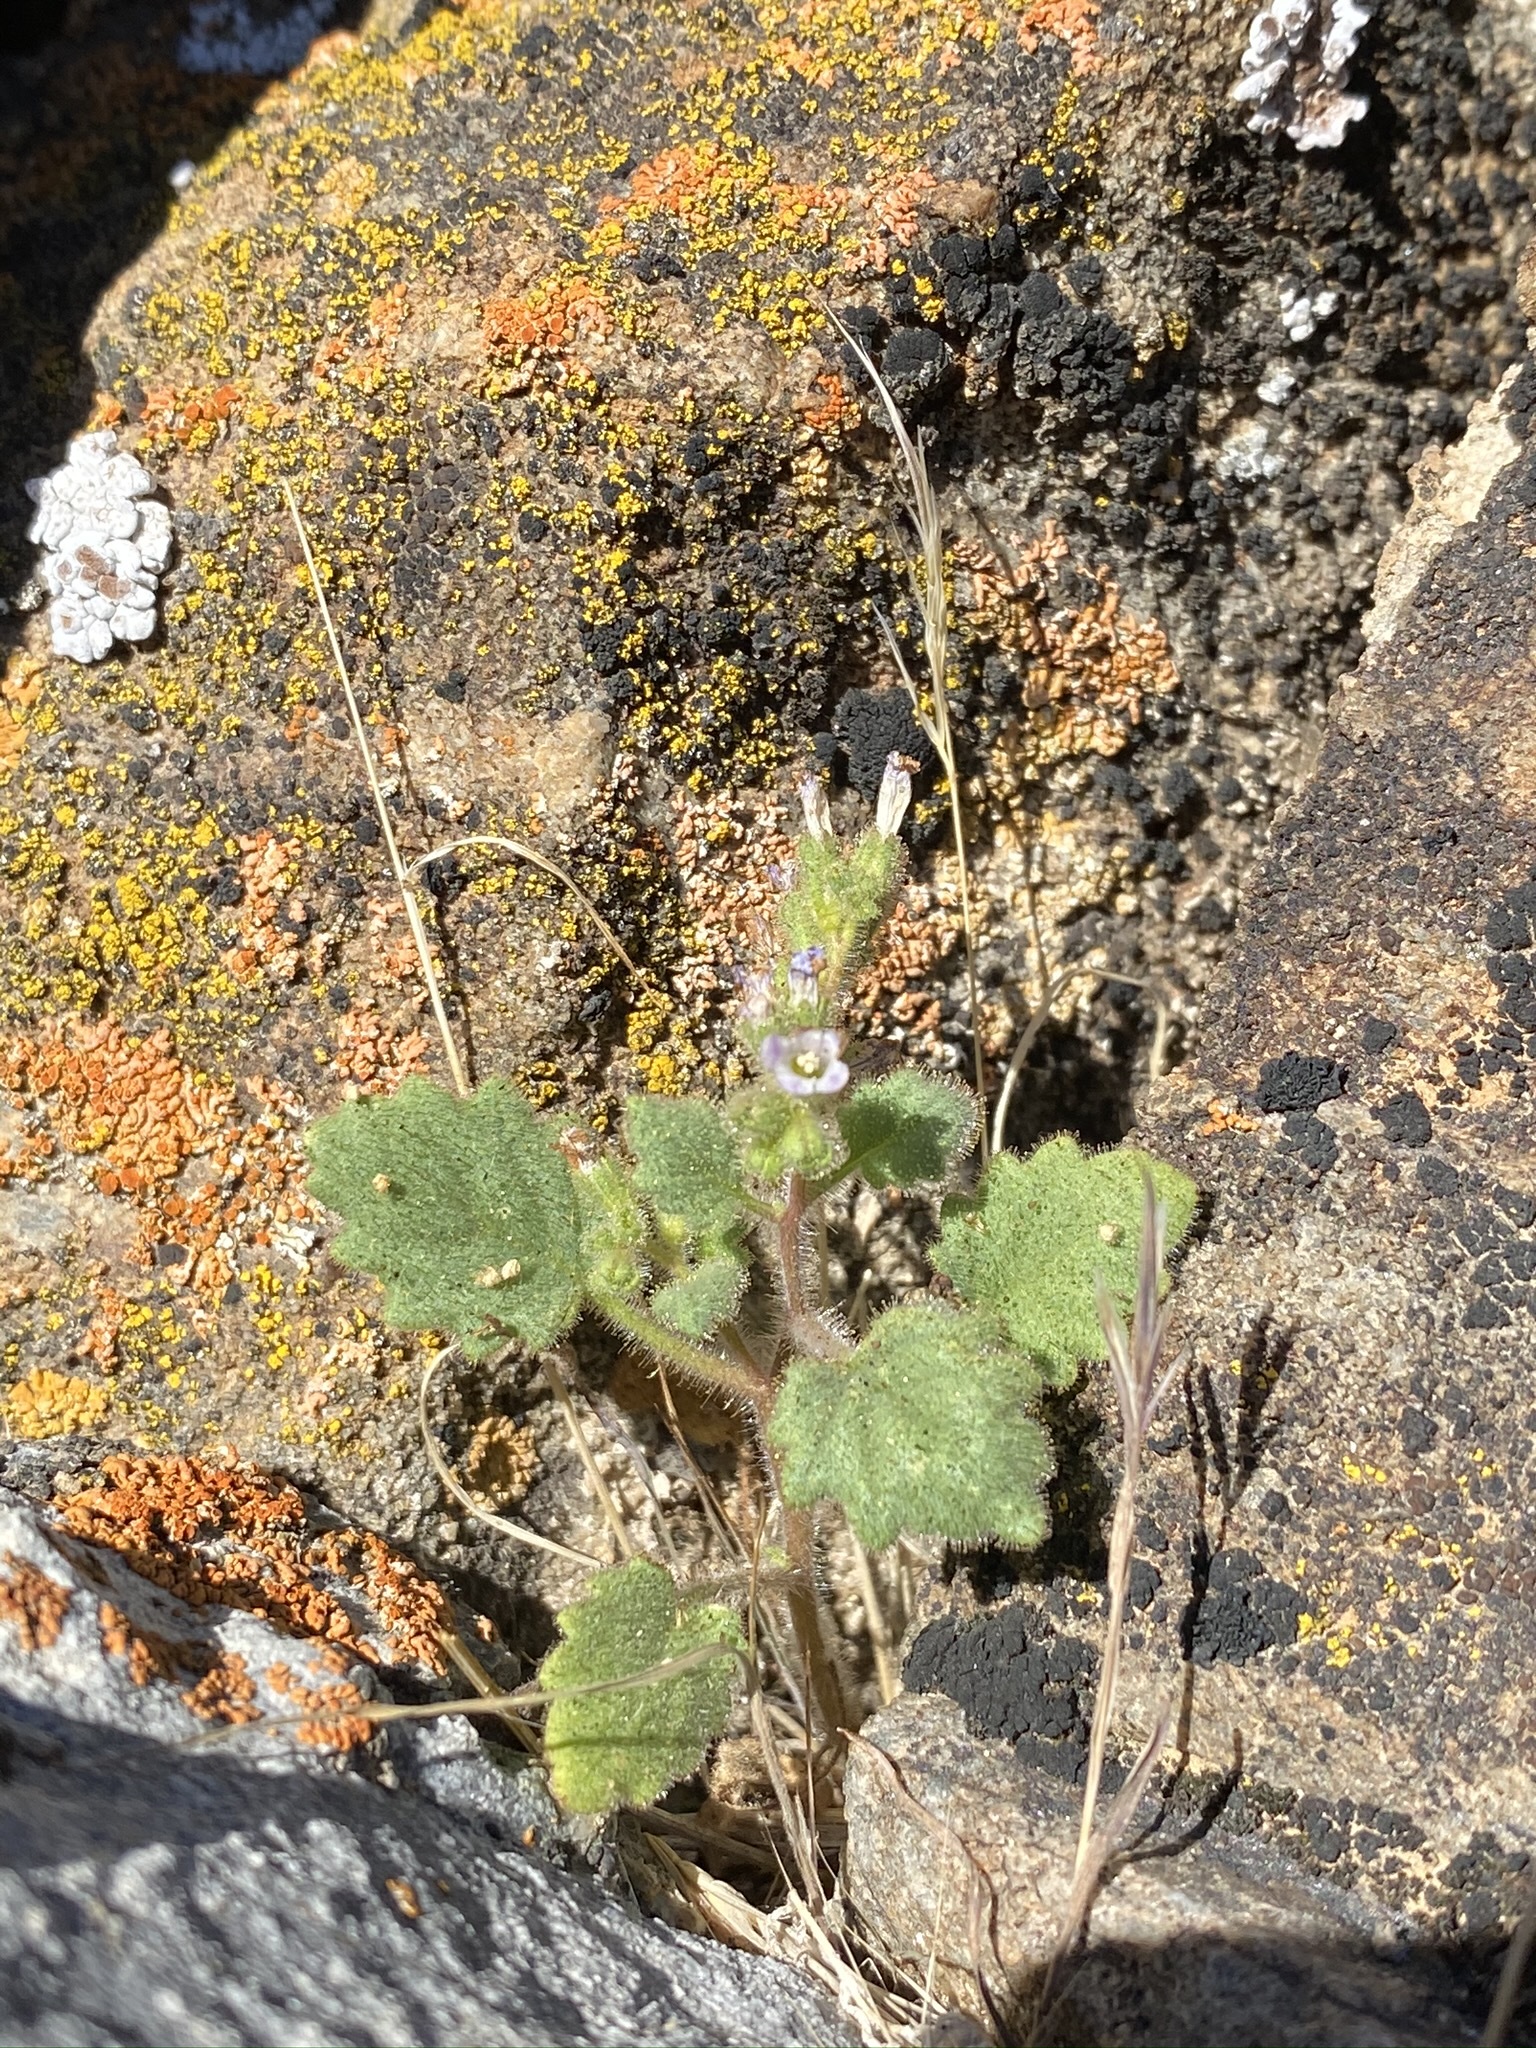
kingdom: Plantae
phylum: Tracheophyta
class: Magnoliopsida
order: Boraginales
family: Hydrophyllaceae
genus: Phacelia
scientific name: Phacelia mustelina
